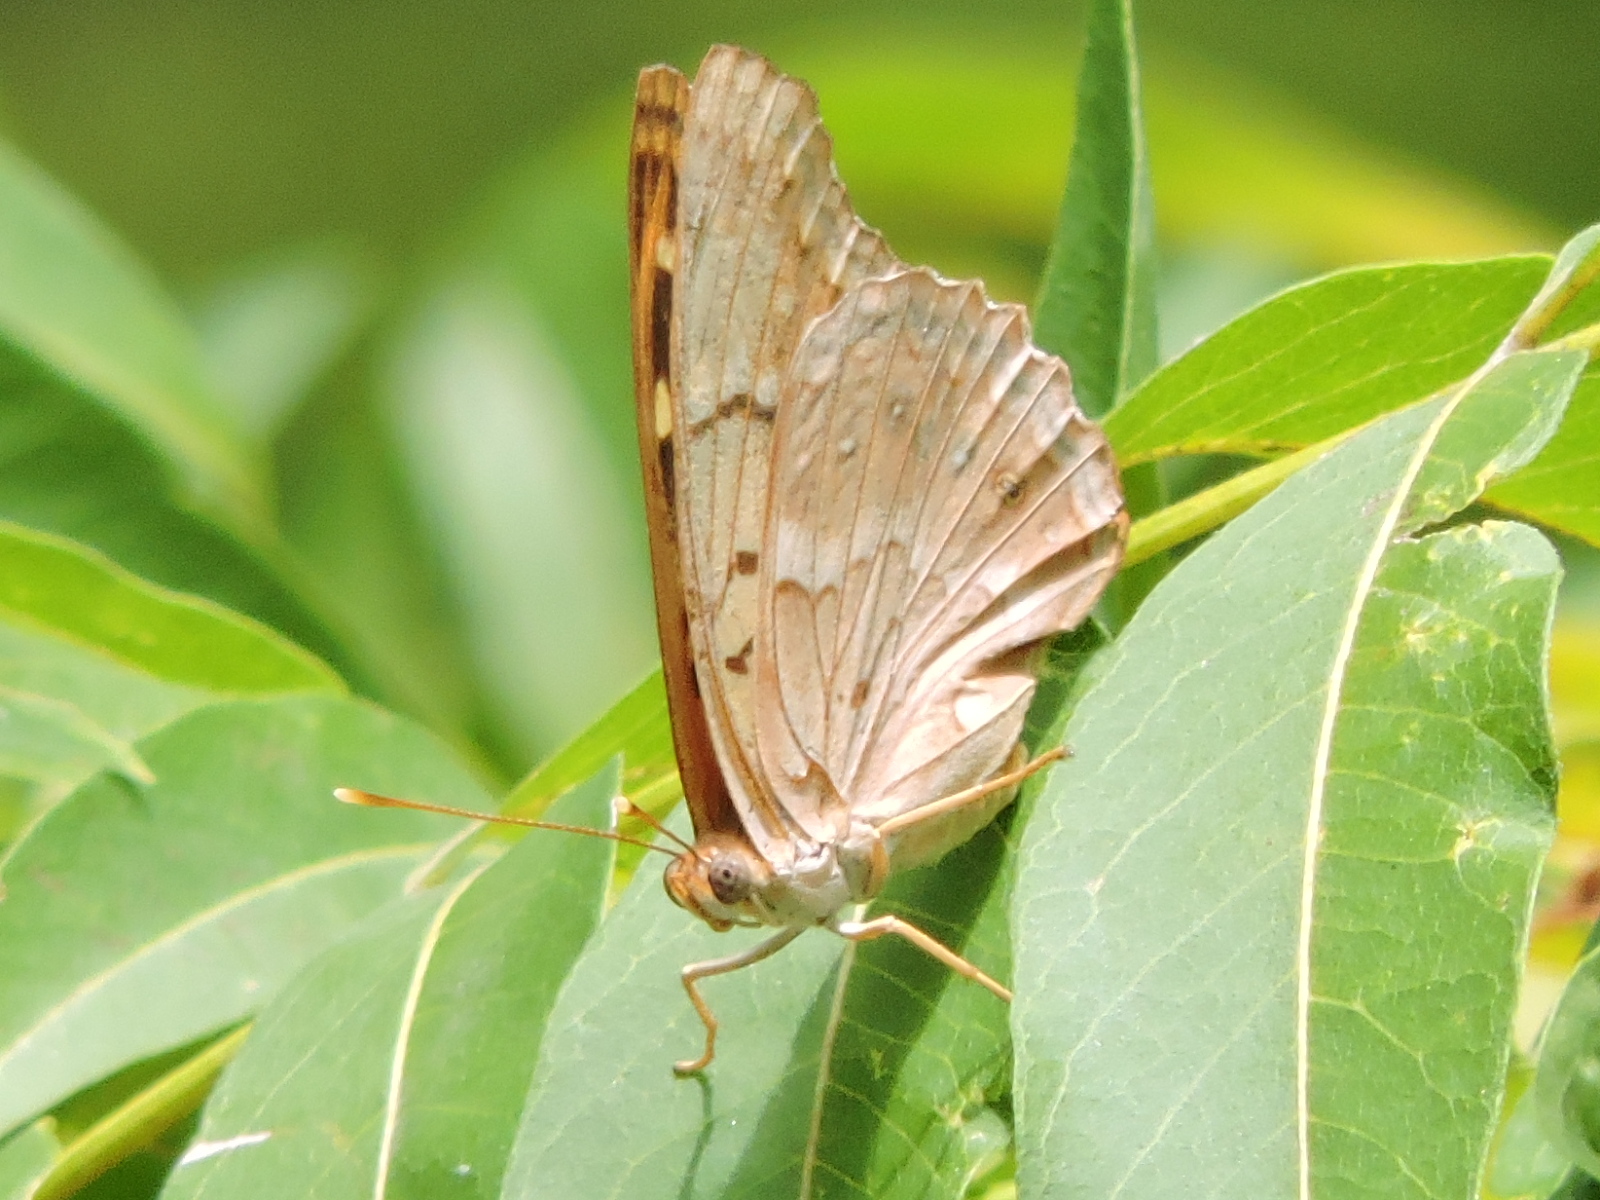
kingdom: Animalia
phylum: Arthropoda
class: Insecta
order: Lepidoptera
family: Nymphalidae
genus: Asterocampa
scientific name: Asterocampa clyton
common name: Tawny emperor
